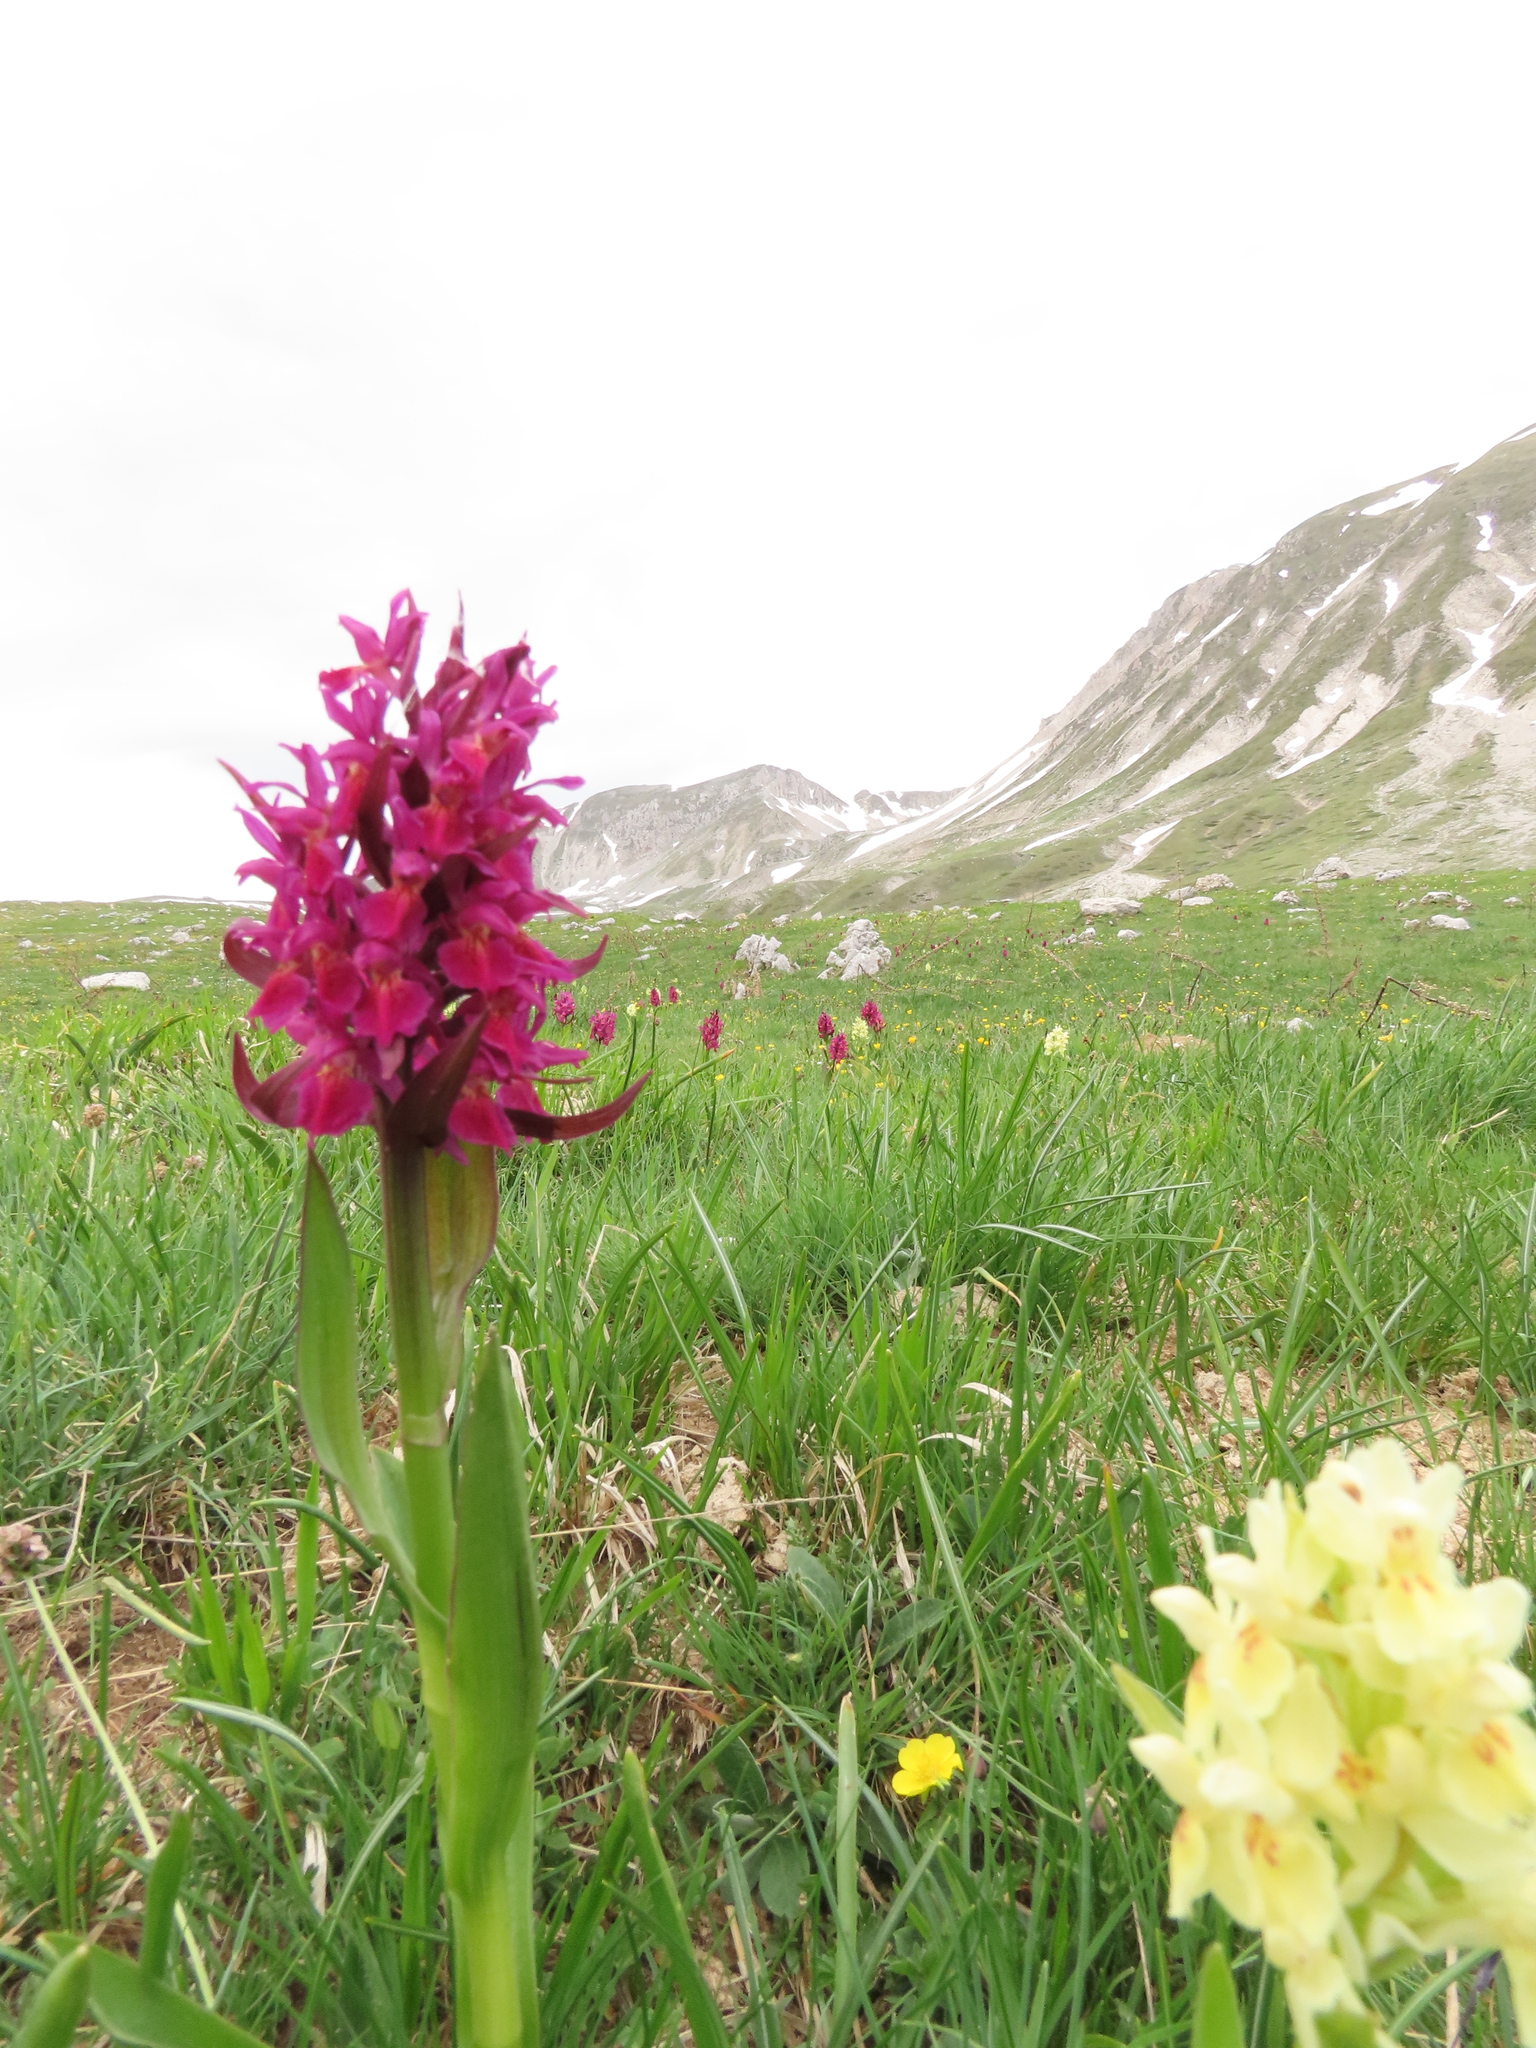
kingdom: Plantae
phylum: Tracheophyta
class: Liliopsida
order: Asparagales
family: Orchidaceae
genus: Dactylorhiza
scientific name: Dactylorhiza sambucina
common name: Elder-flowered orchid
